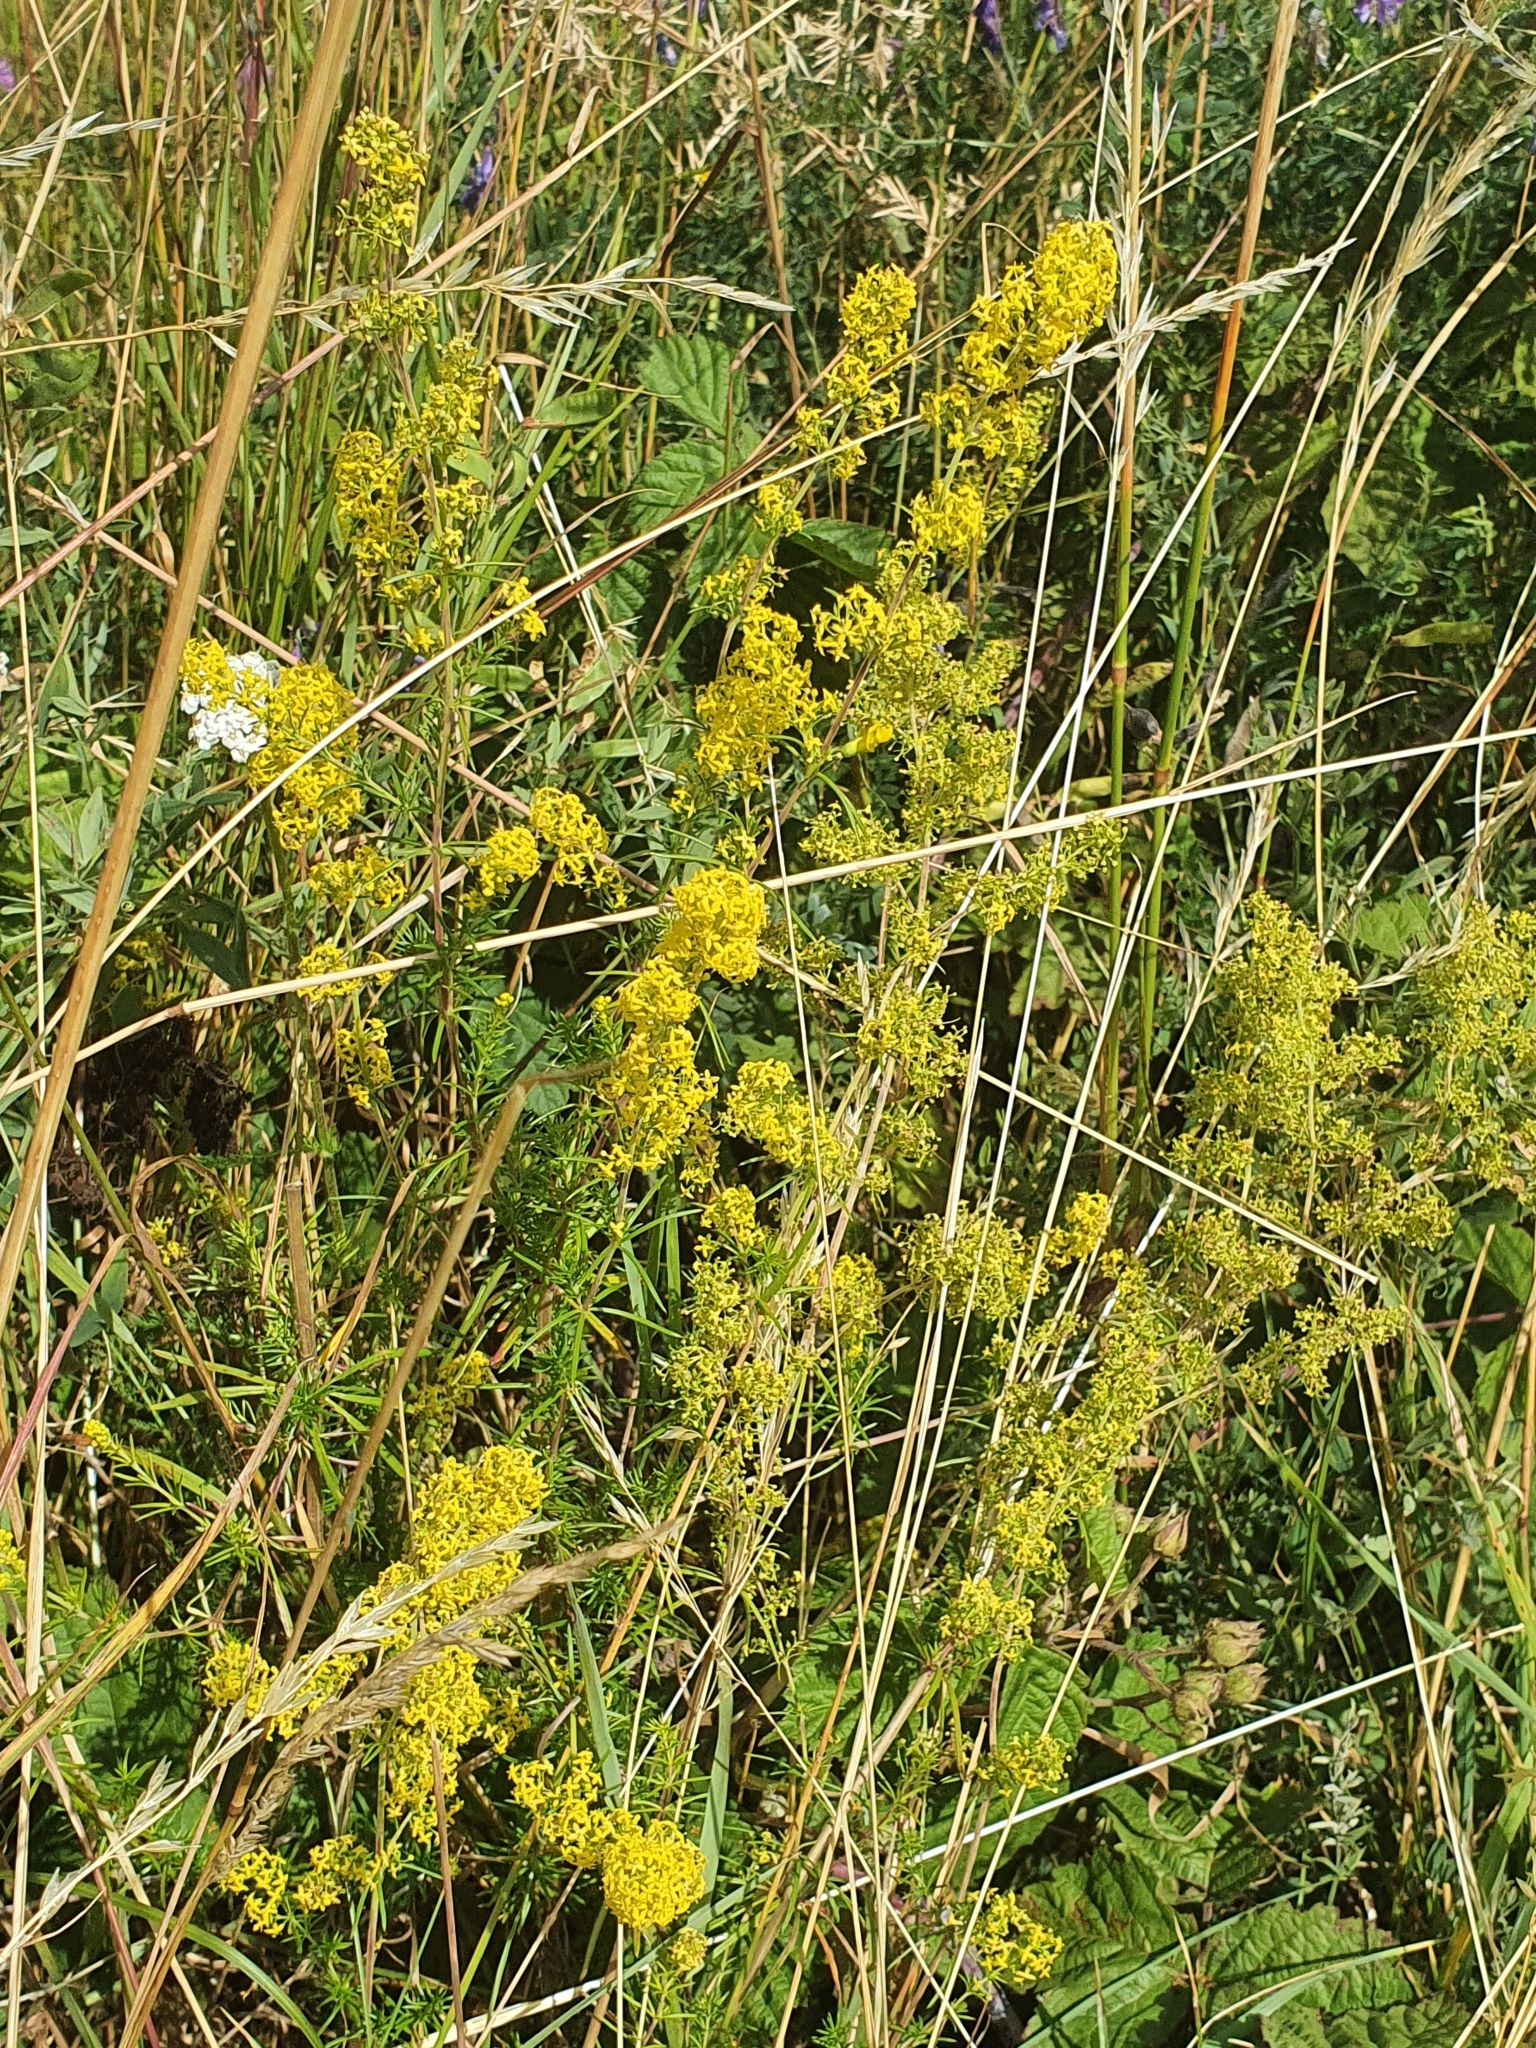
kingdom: Plantae
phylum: Tracheophyta
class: Magnoliopsida
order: Gentianales
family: Rubiaceae
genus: Galium
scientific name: Galium verum
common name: Lady's bedstraw
